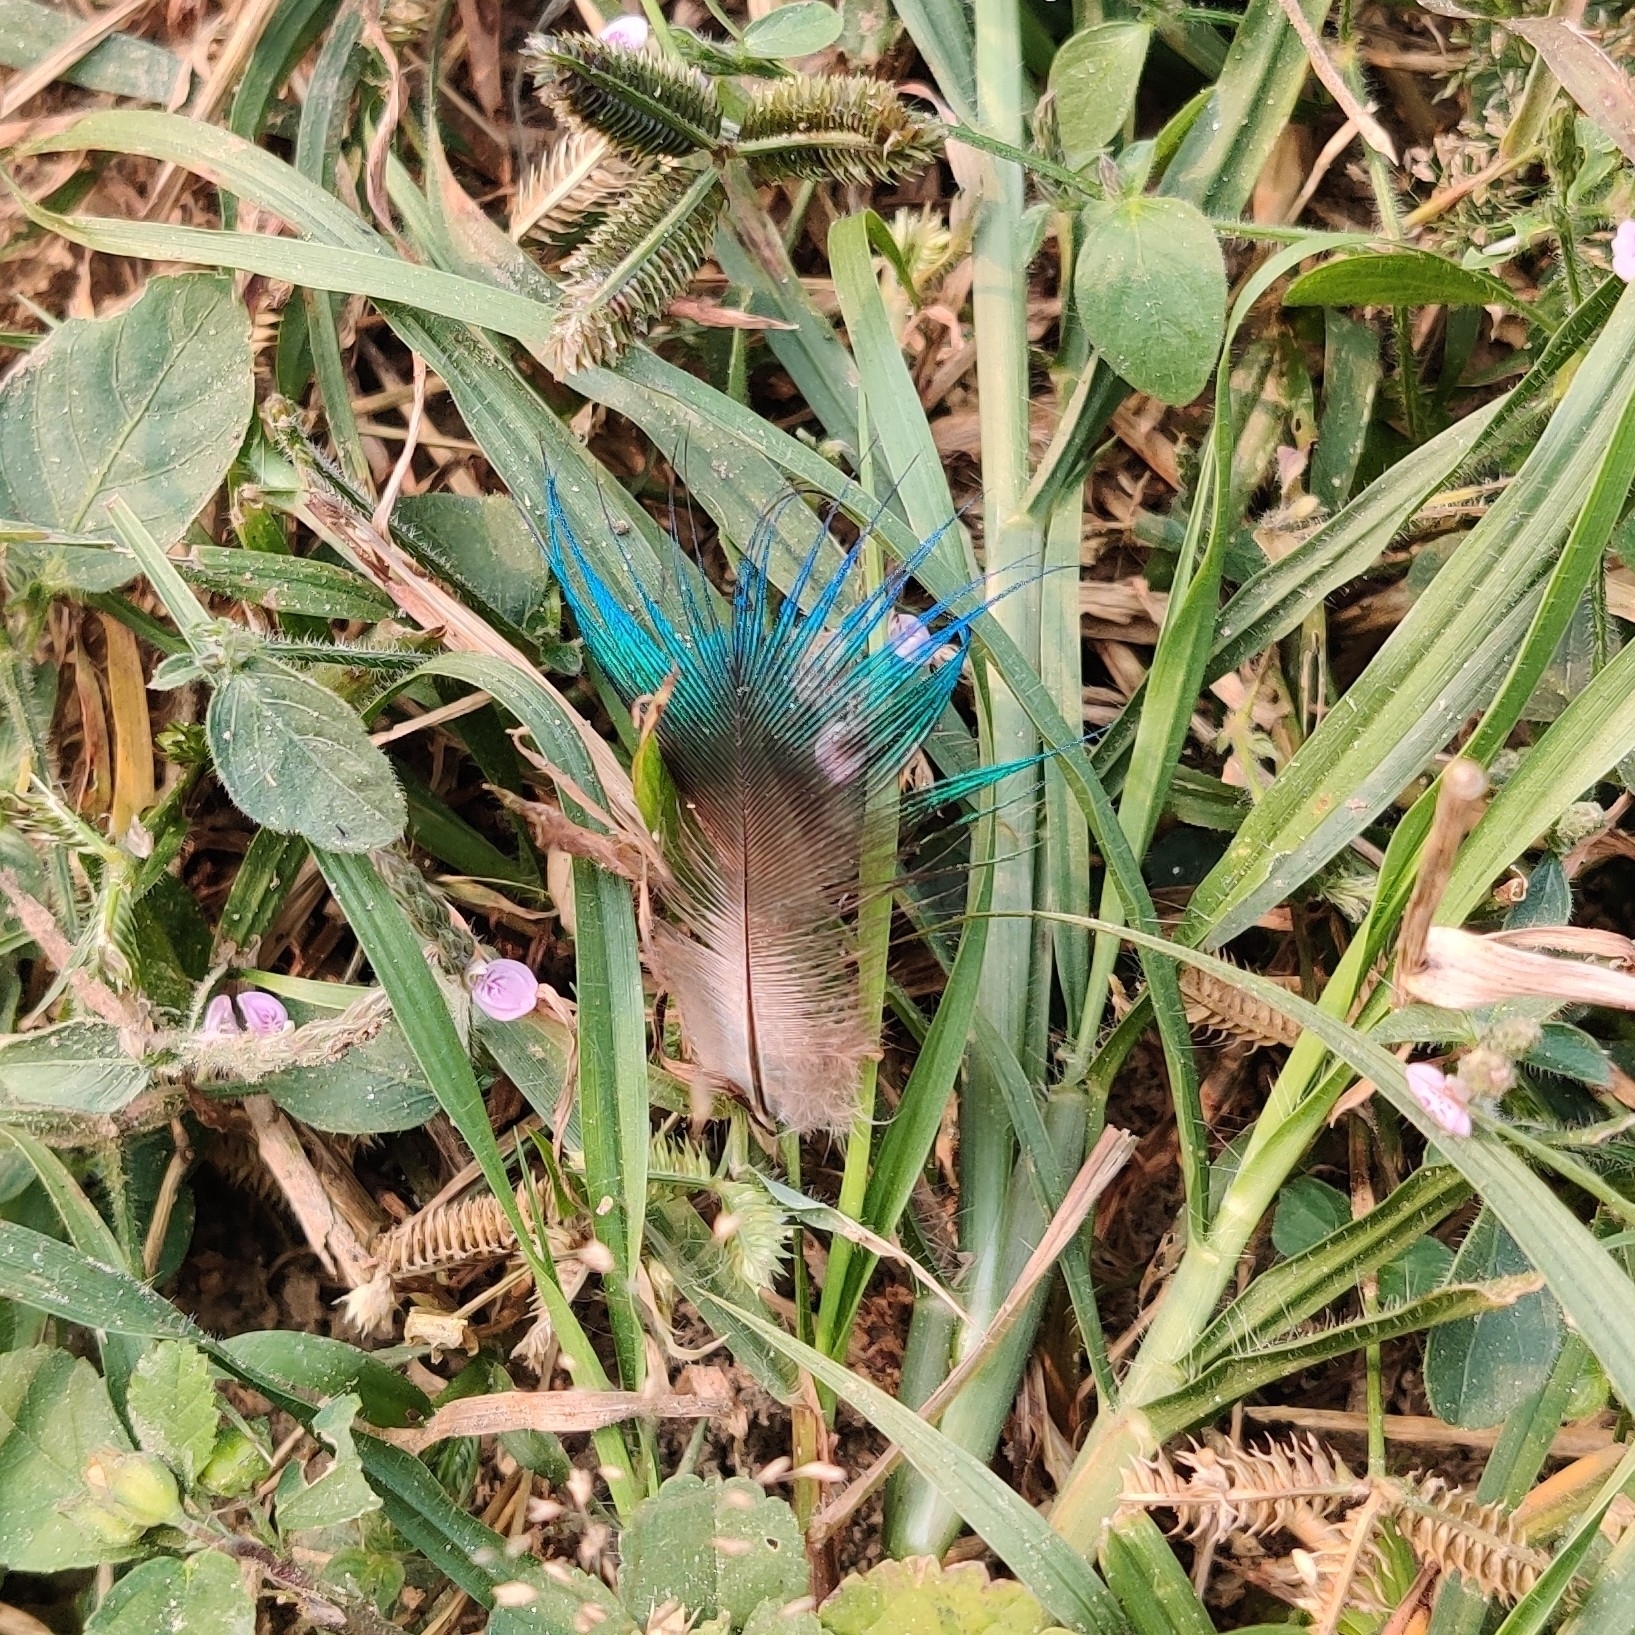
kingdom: Animalia
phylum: Chordata
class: Aves
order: Galliformes
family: Phasianidae
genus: Pavo
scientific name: Pavo cristatus
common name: Indian peafowl
